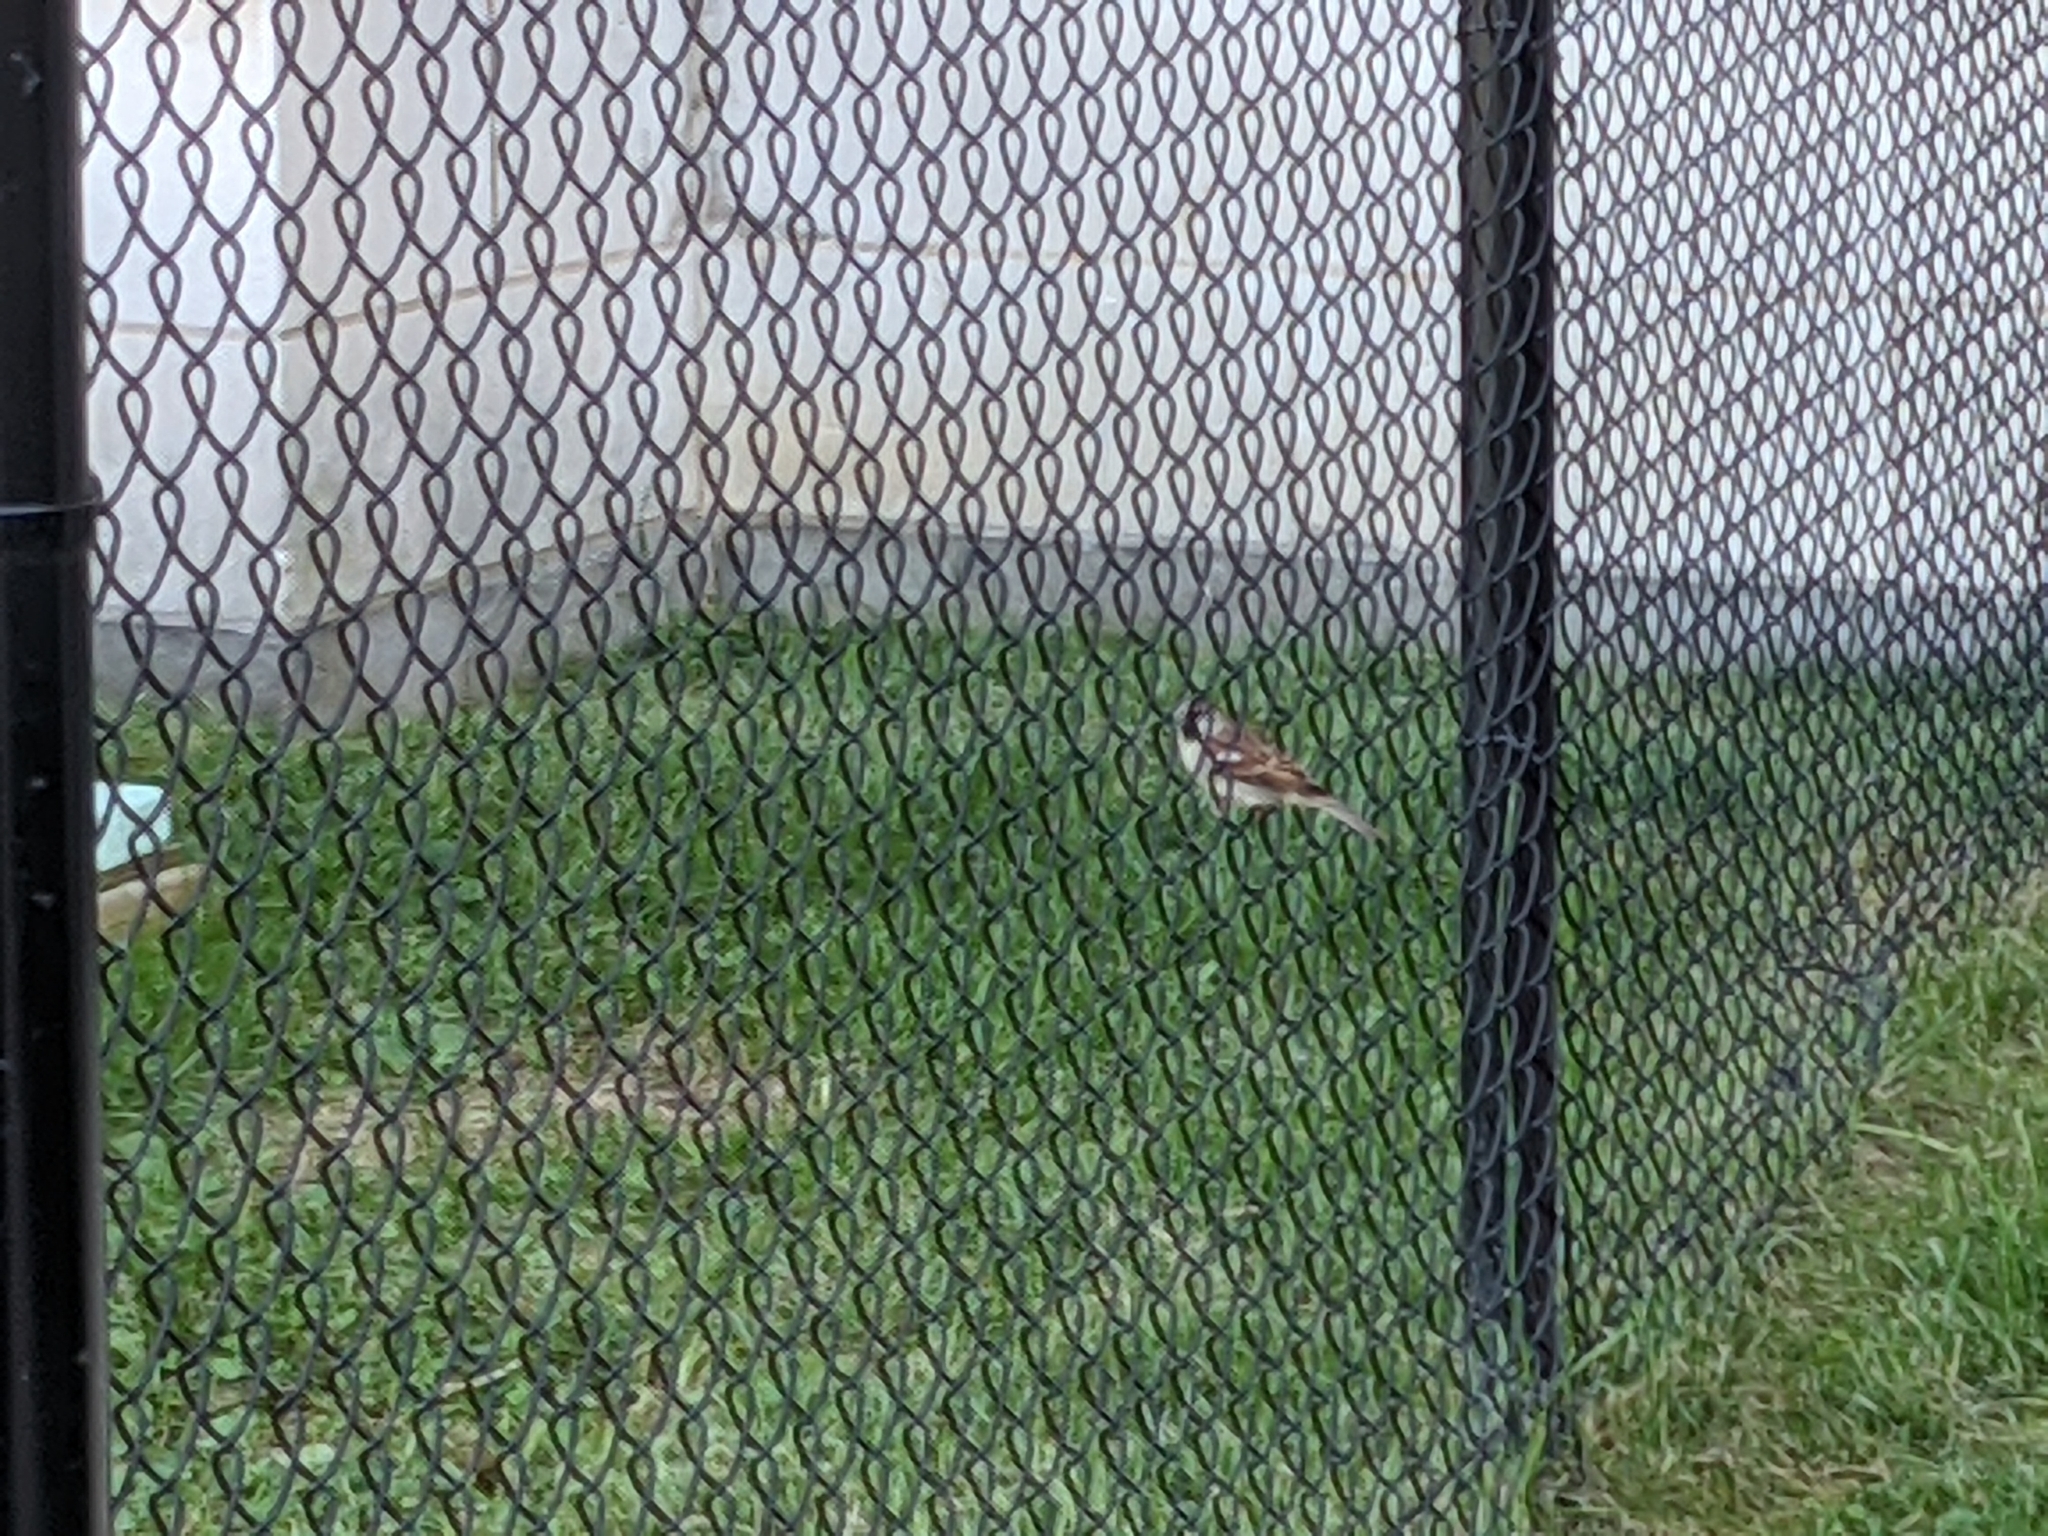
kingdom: Animalia
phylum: Chordata
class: Aves
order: Passeriformes
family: Passeridae
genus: Passer
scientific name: Passer domesticus
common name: House sparrow
